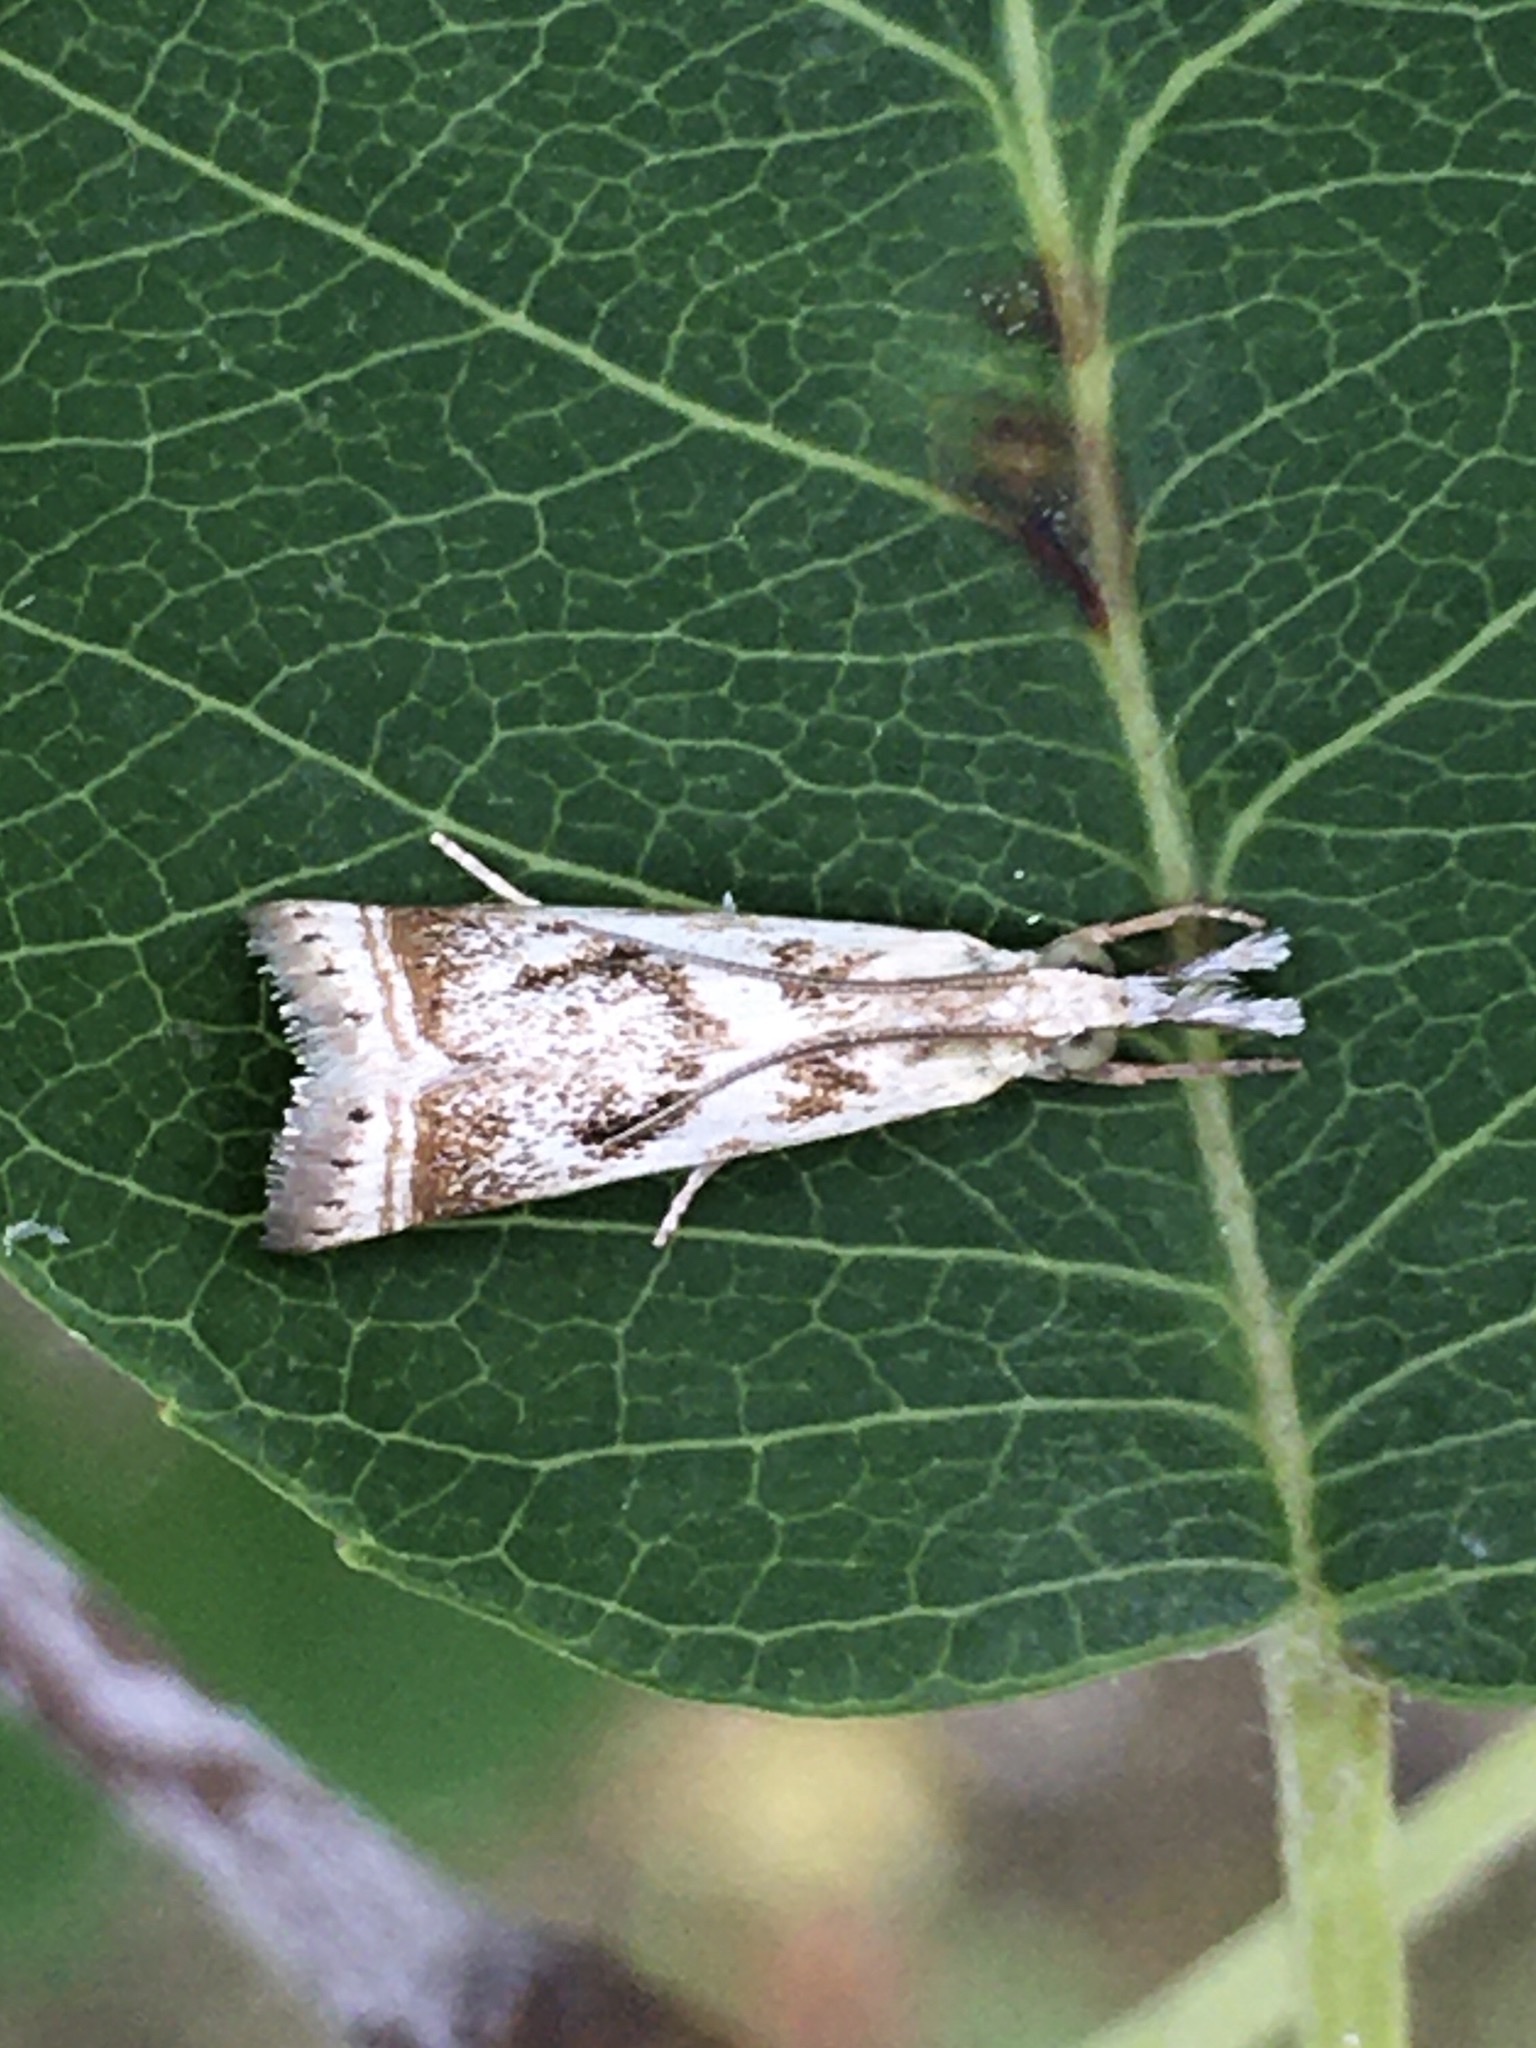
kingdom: Animalia
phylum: Arthropoda
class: Insecta
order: Lepidoptera
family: Crambidae
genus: Microcrambus
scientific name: Microcrambus elegans
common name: Elegant grass-veneer
